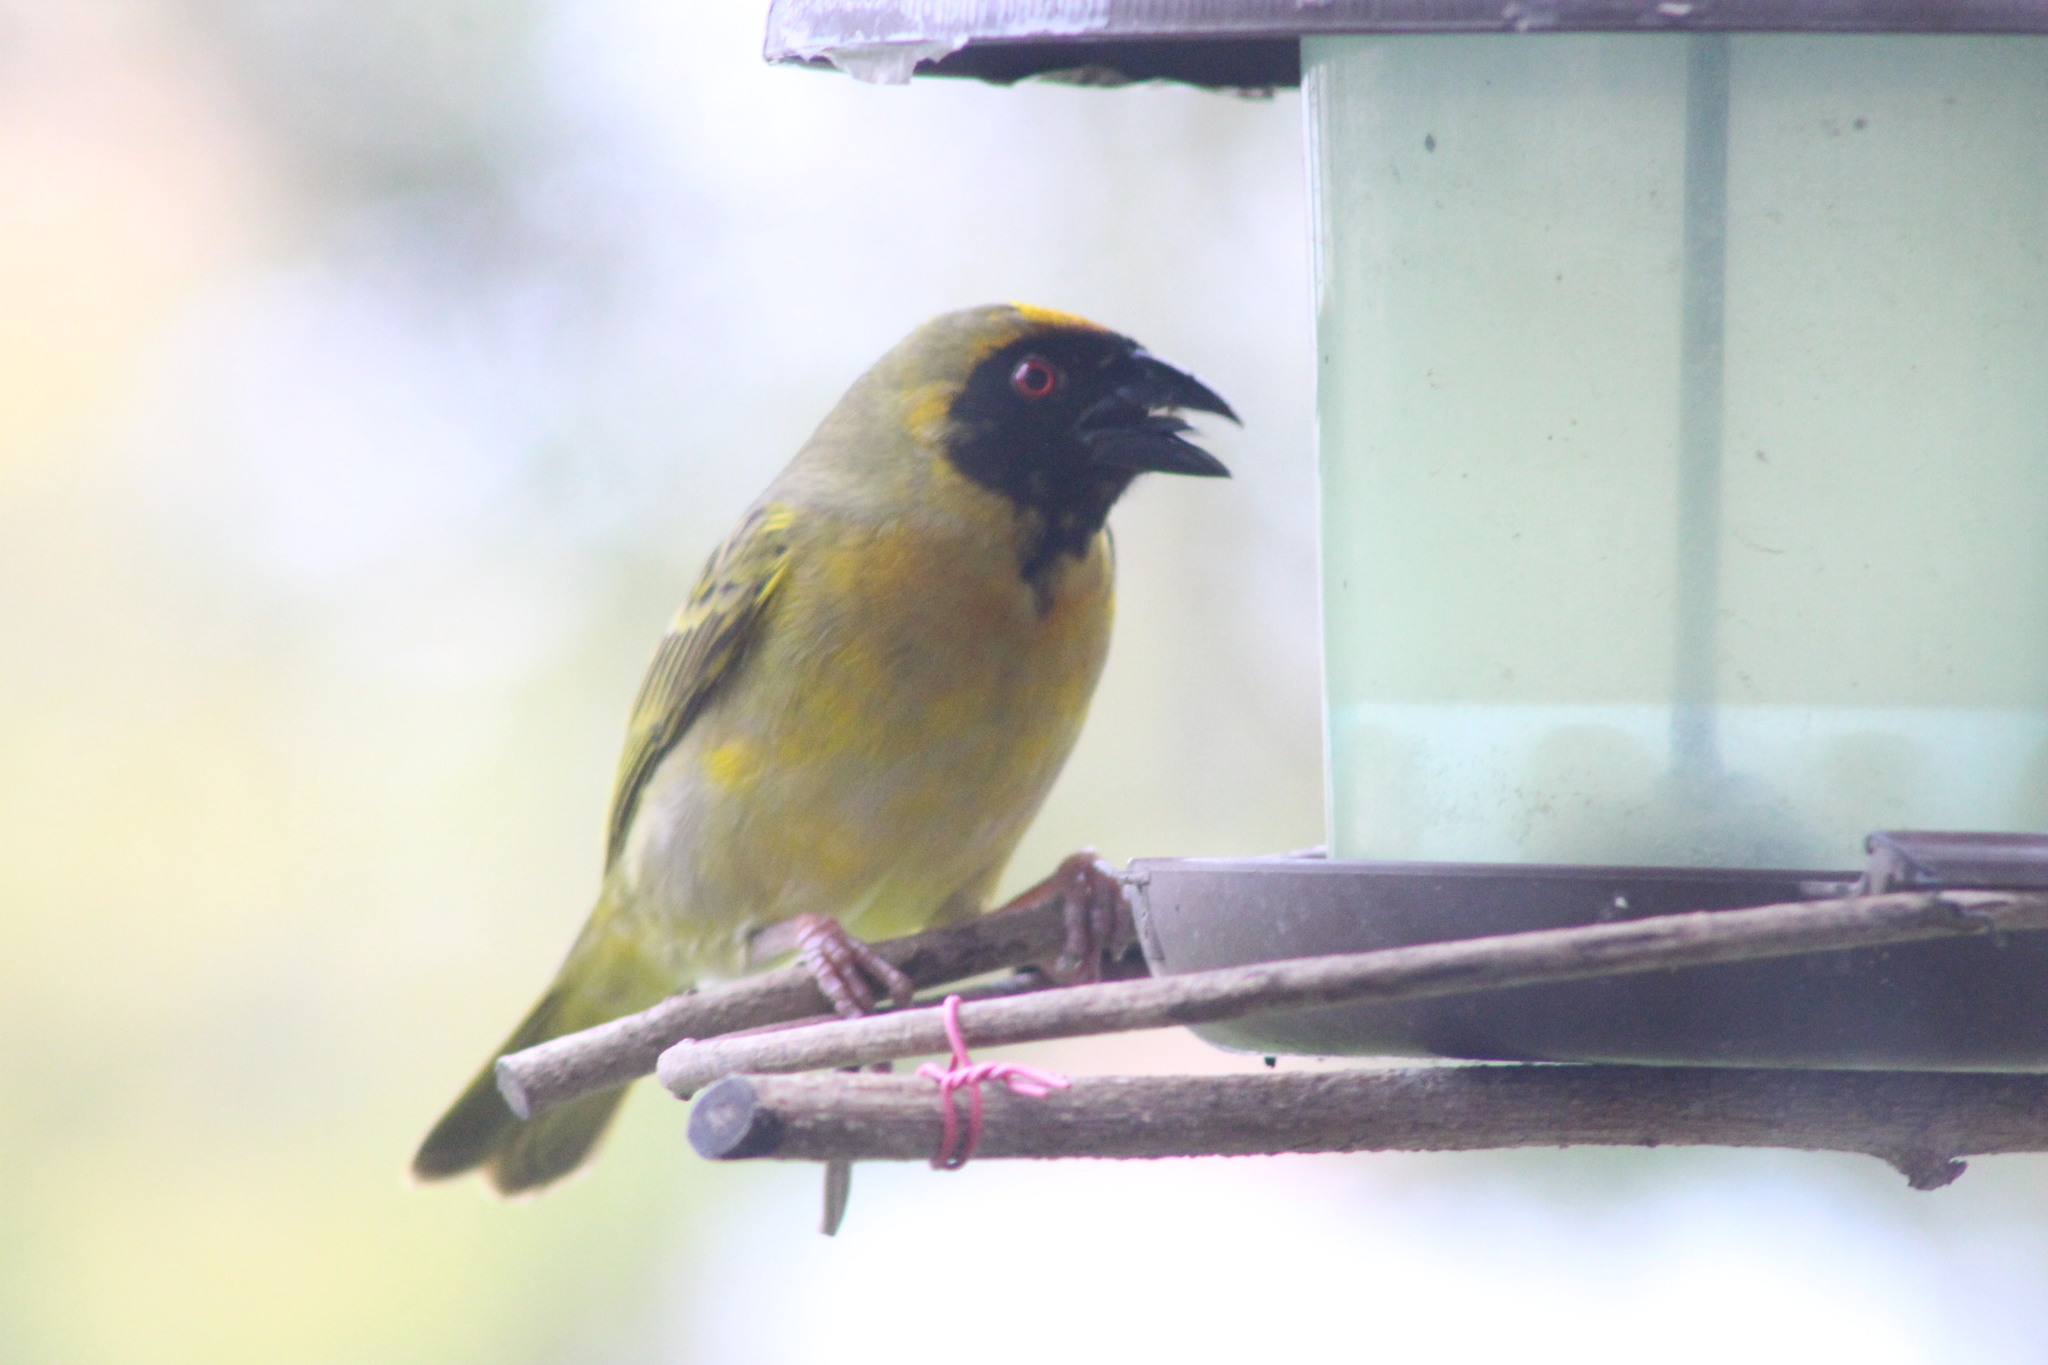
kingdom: Animalia
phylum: Chordata
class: Aves
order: Passeriformes
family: Ploceidae
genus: Ploceus
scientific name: Ploceus velatus
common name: Southern masked weaver
